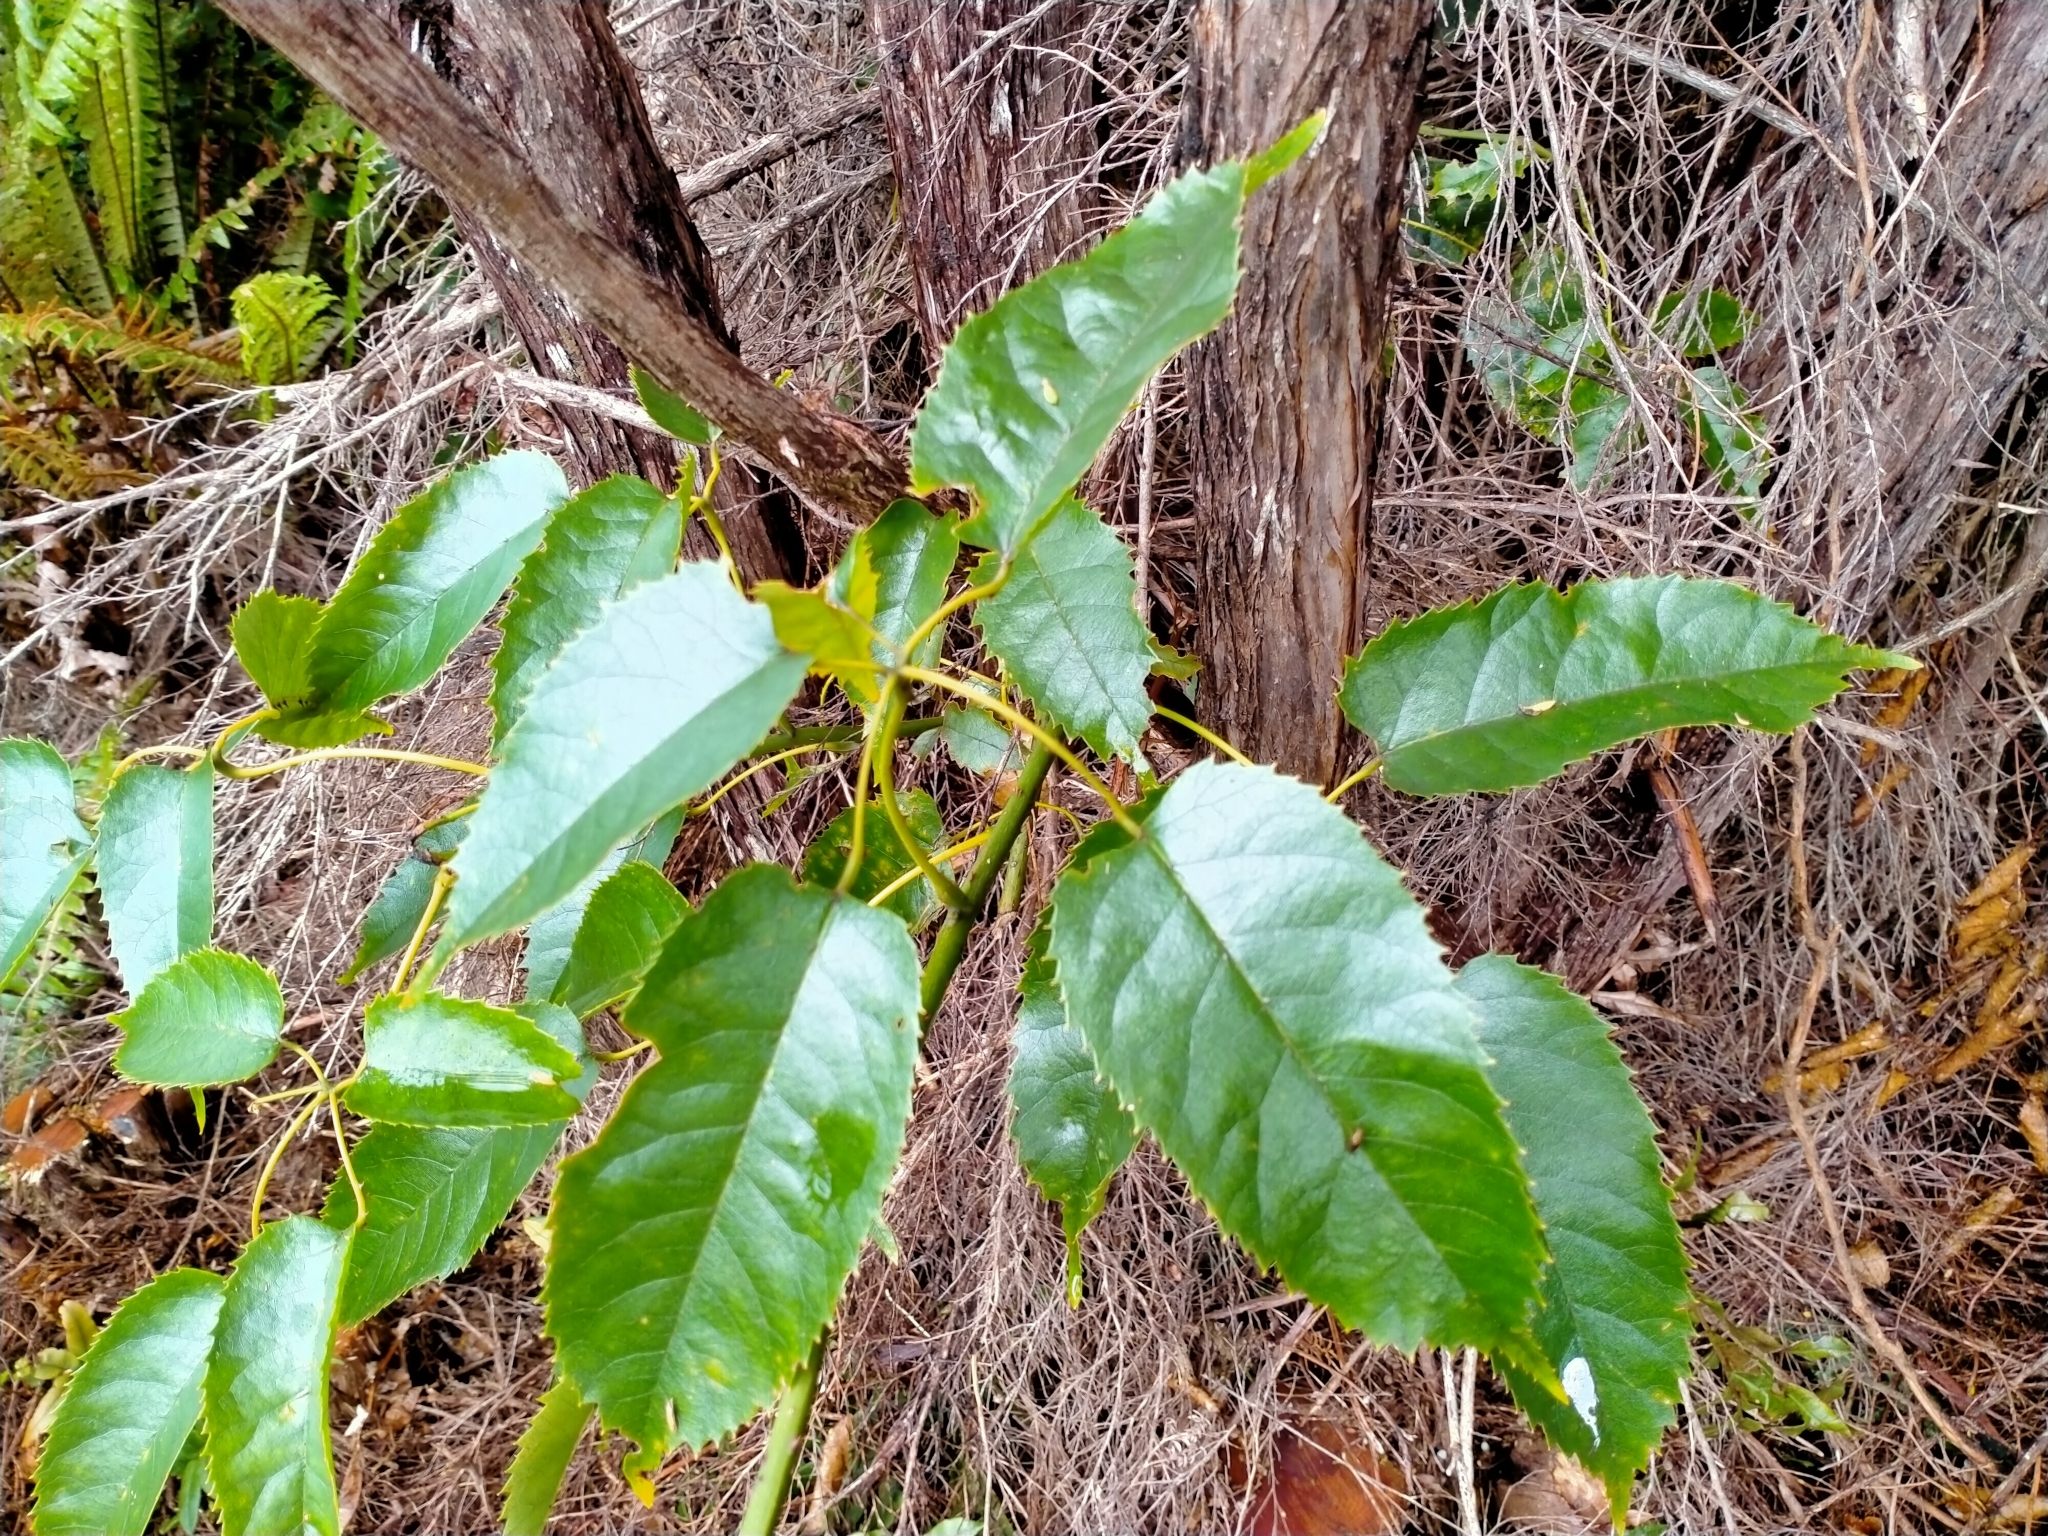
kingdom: Plantae
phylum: Tracheophyta
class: Magnoliopsida
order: Rosales
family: Rosaceae
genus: Rubus
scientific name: Rubus cissoides
